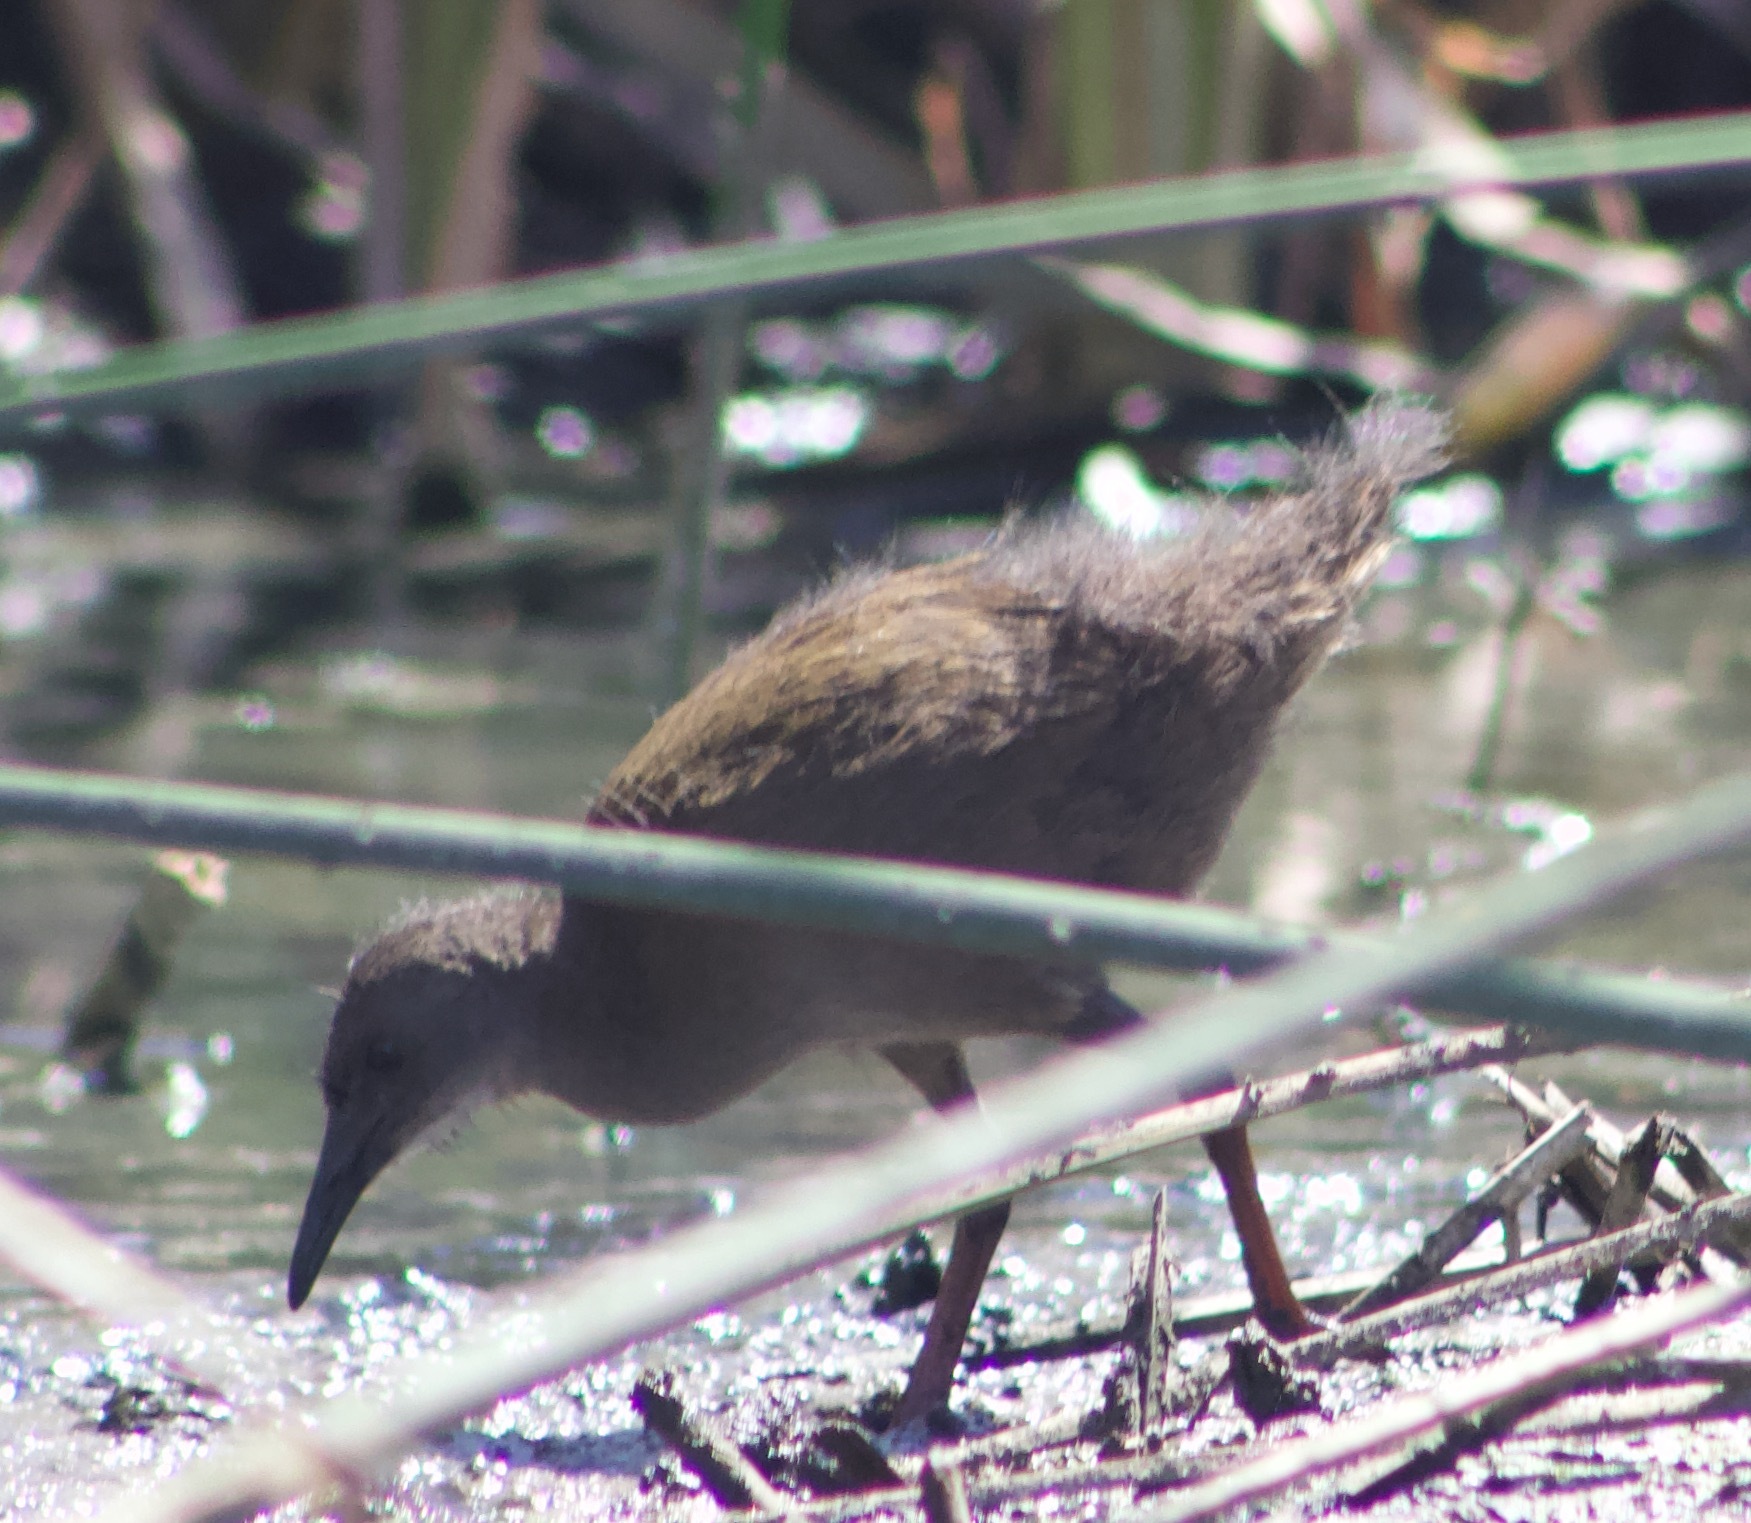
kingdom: Animalia
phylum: Chordata
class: Aves
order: Gruiformes
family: Rallidae
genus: Pardirallus
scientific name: Pardirallus sanguinolentus
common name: Plumbeous rail
